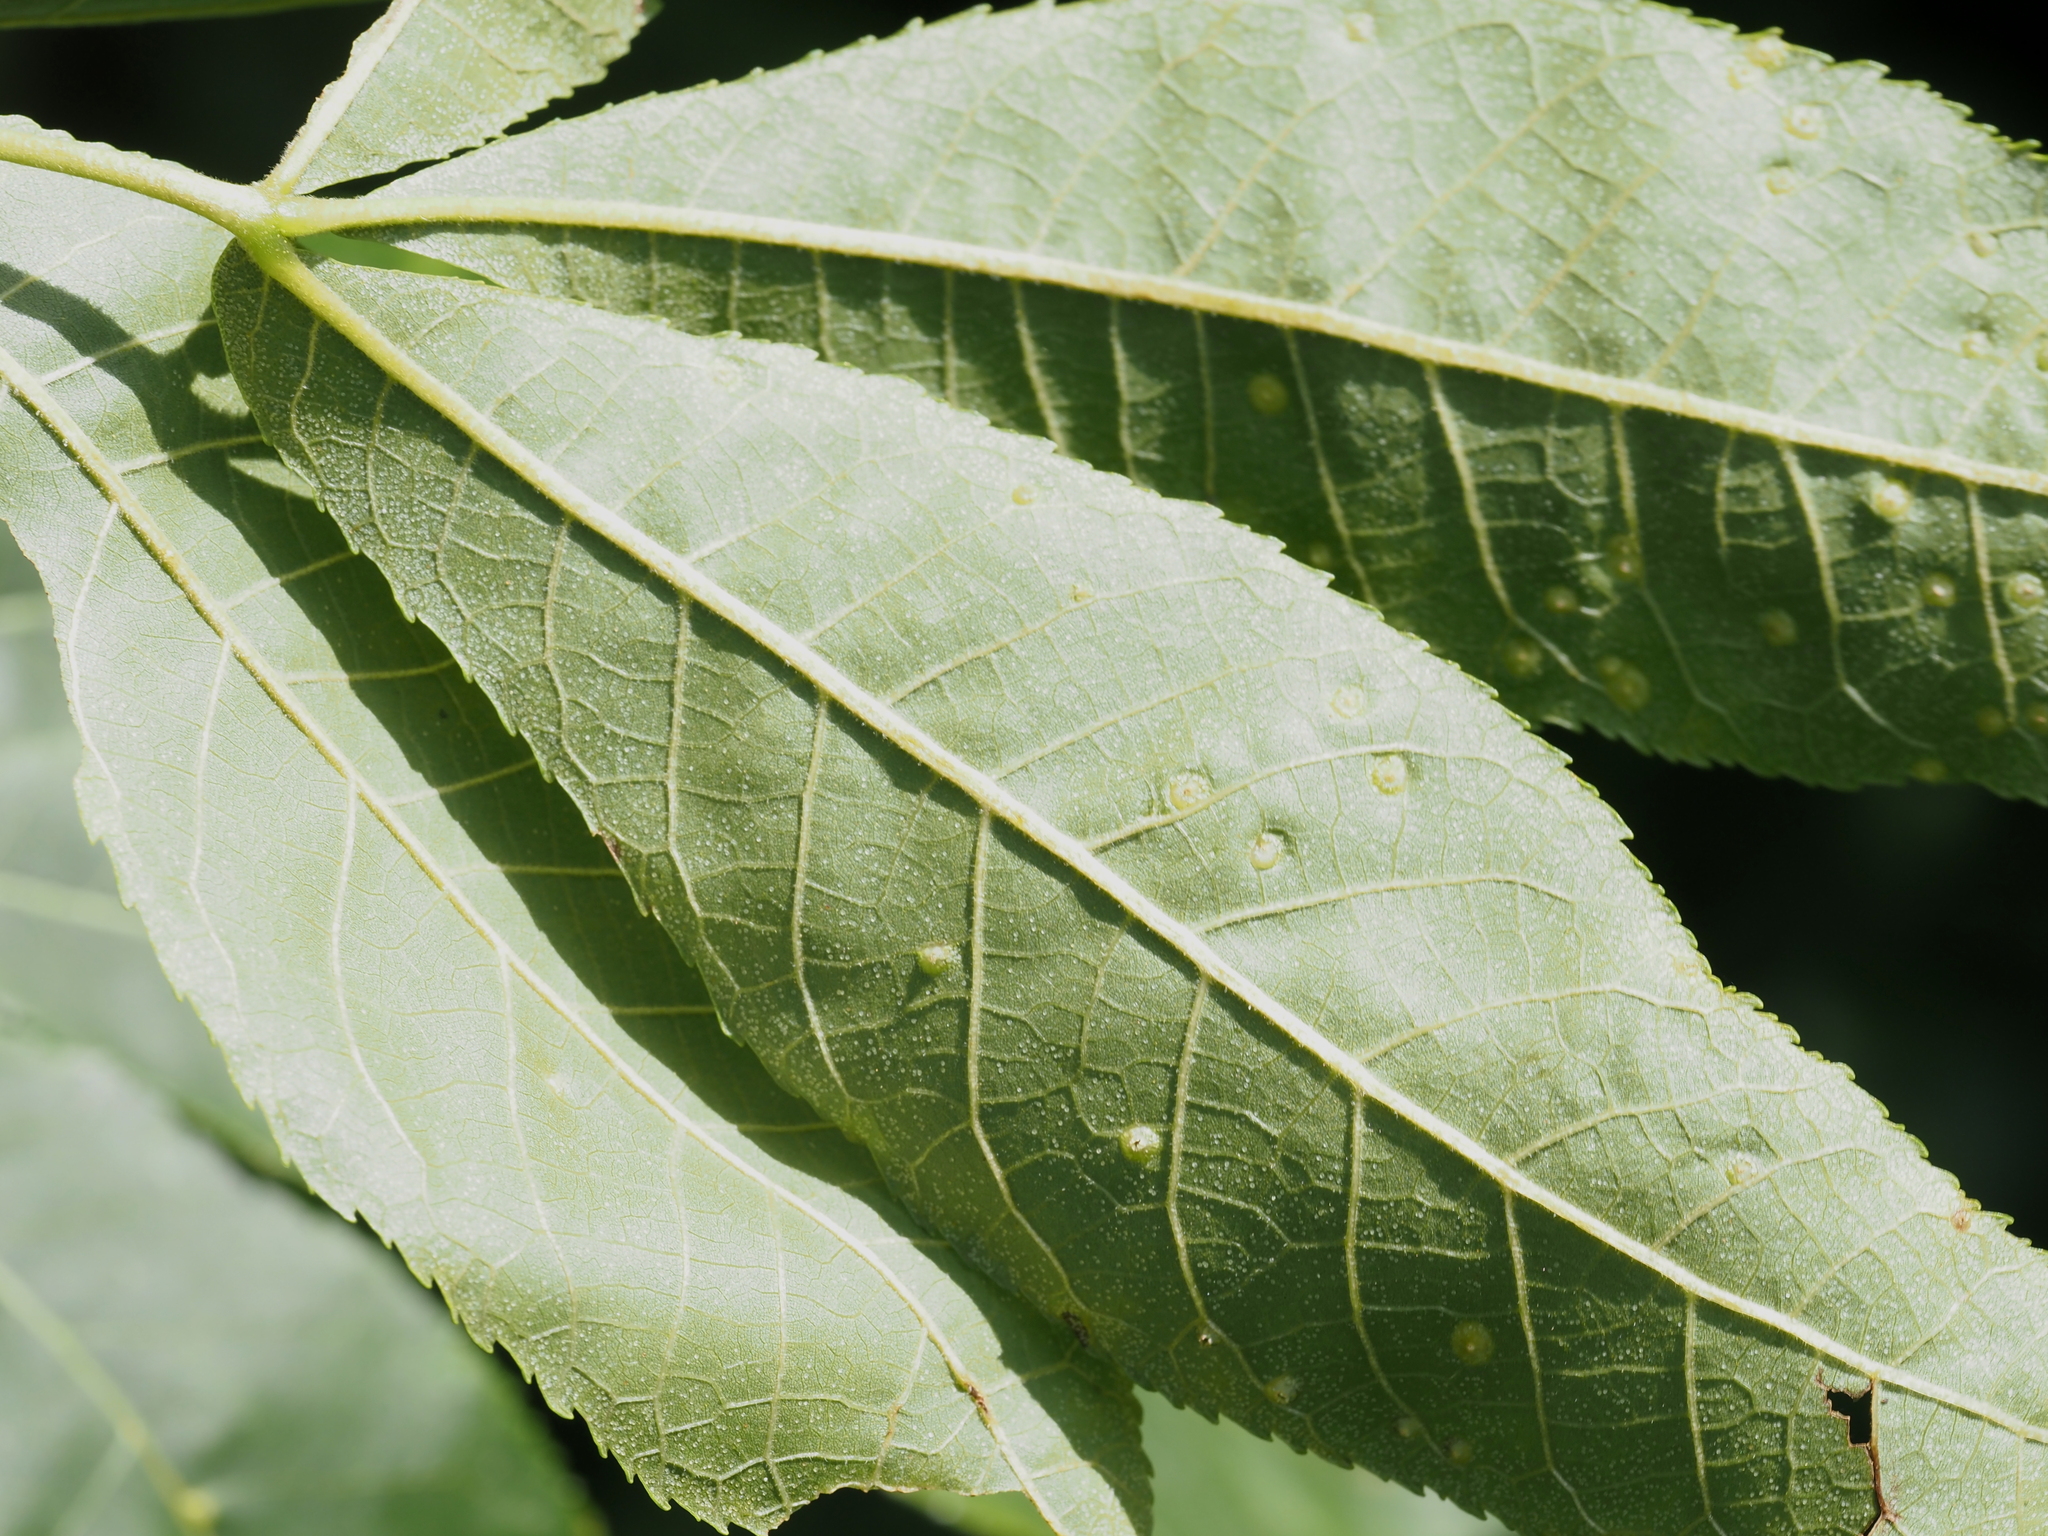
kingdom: Animalia
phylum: Arthropoda
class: Insecta
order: Hemiptera
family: Phylloxeridae
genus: Phylloxera
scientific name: Phylloxera caryae-semen
